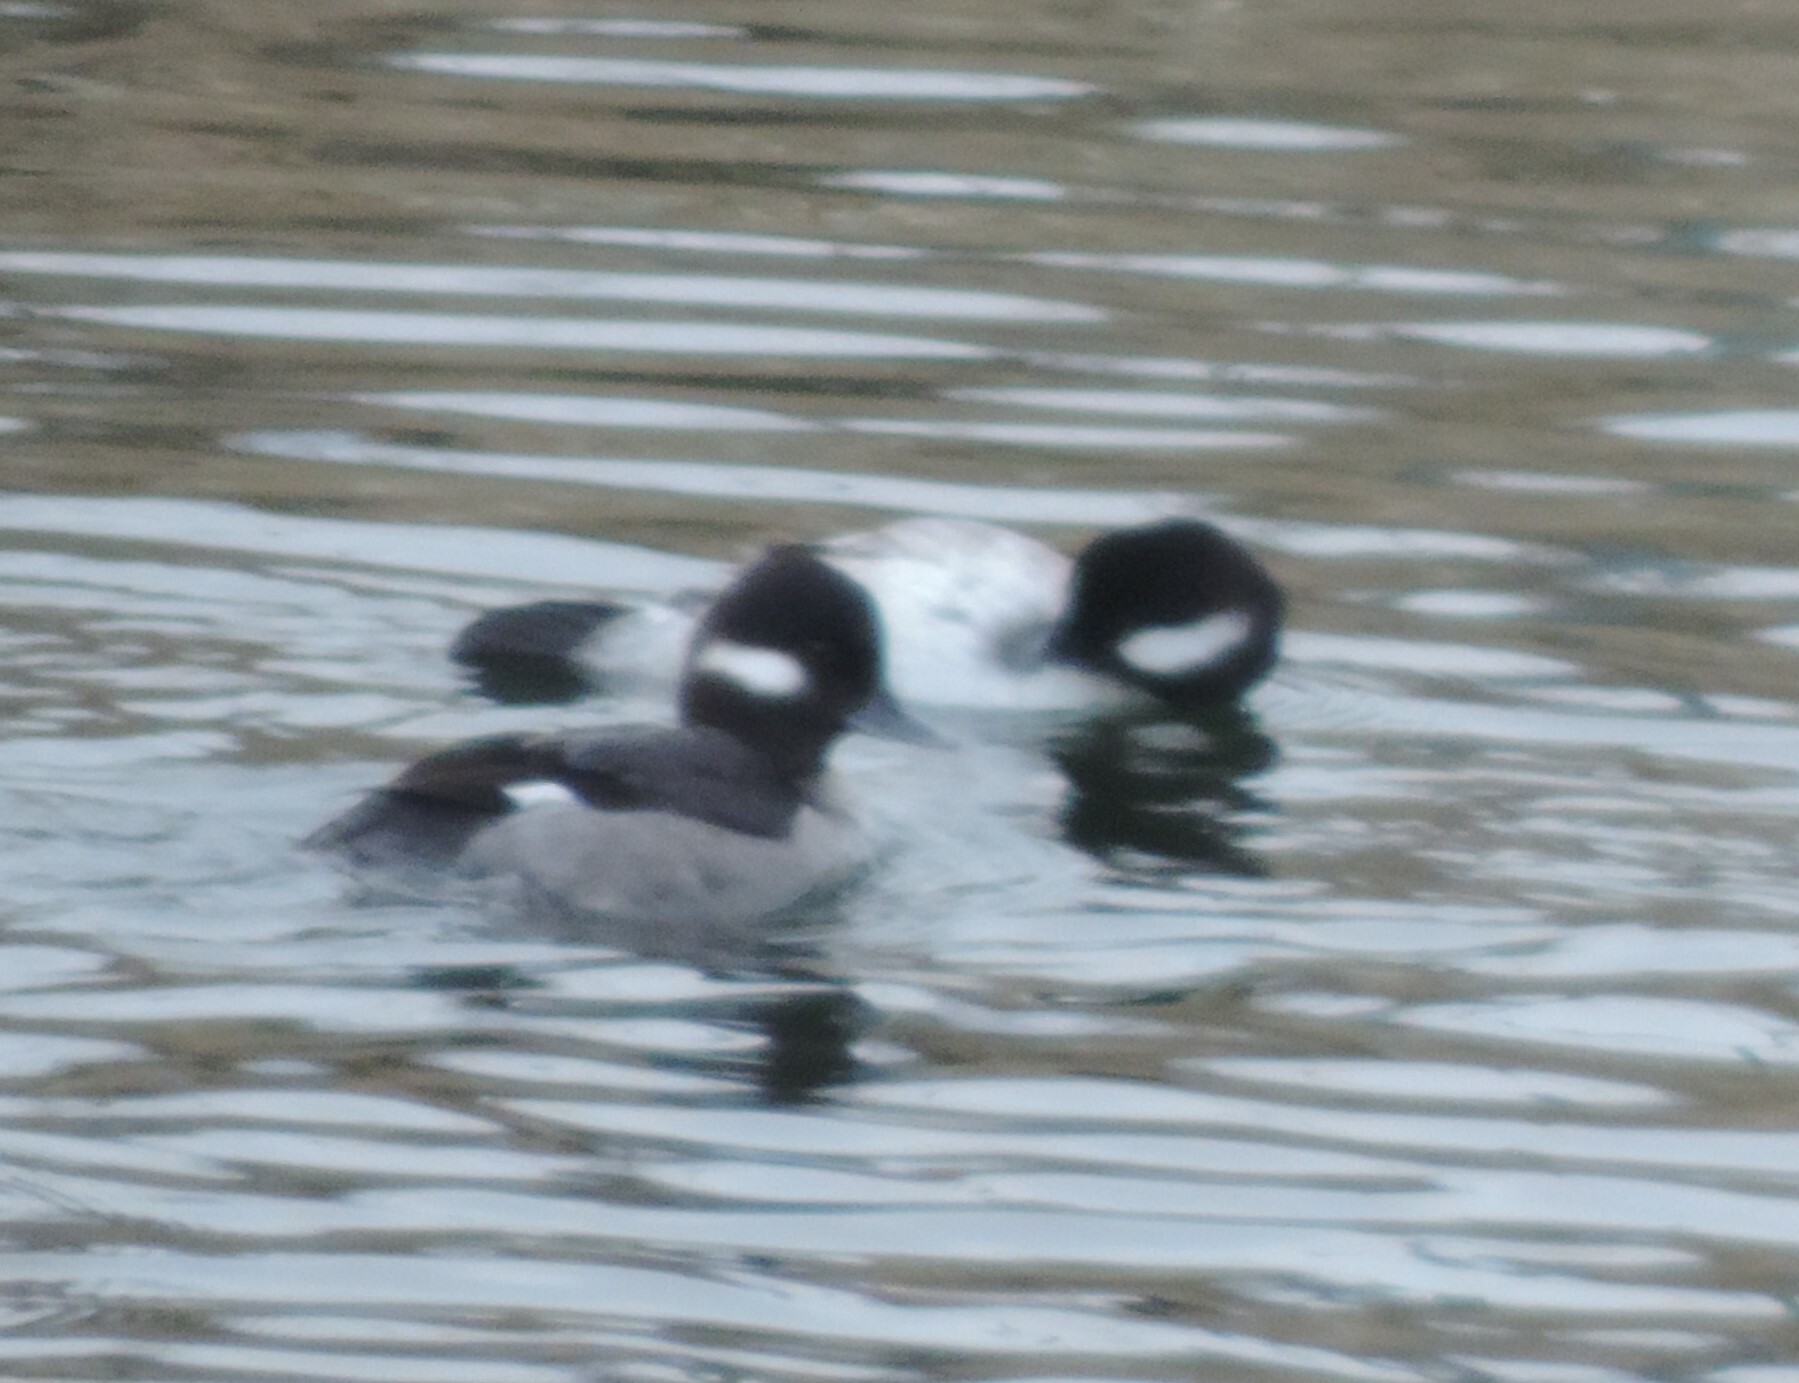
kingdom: Animalia
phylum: Chordata
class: Aves
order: Anseriformes
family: Anatidae
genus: Bucephala
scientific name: Bucephala albeola
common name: Bufflehead
